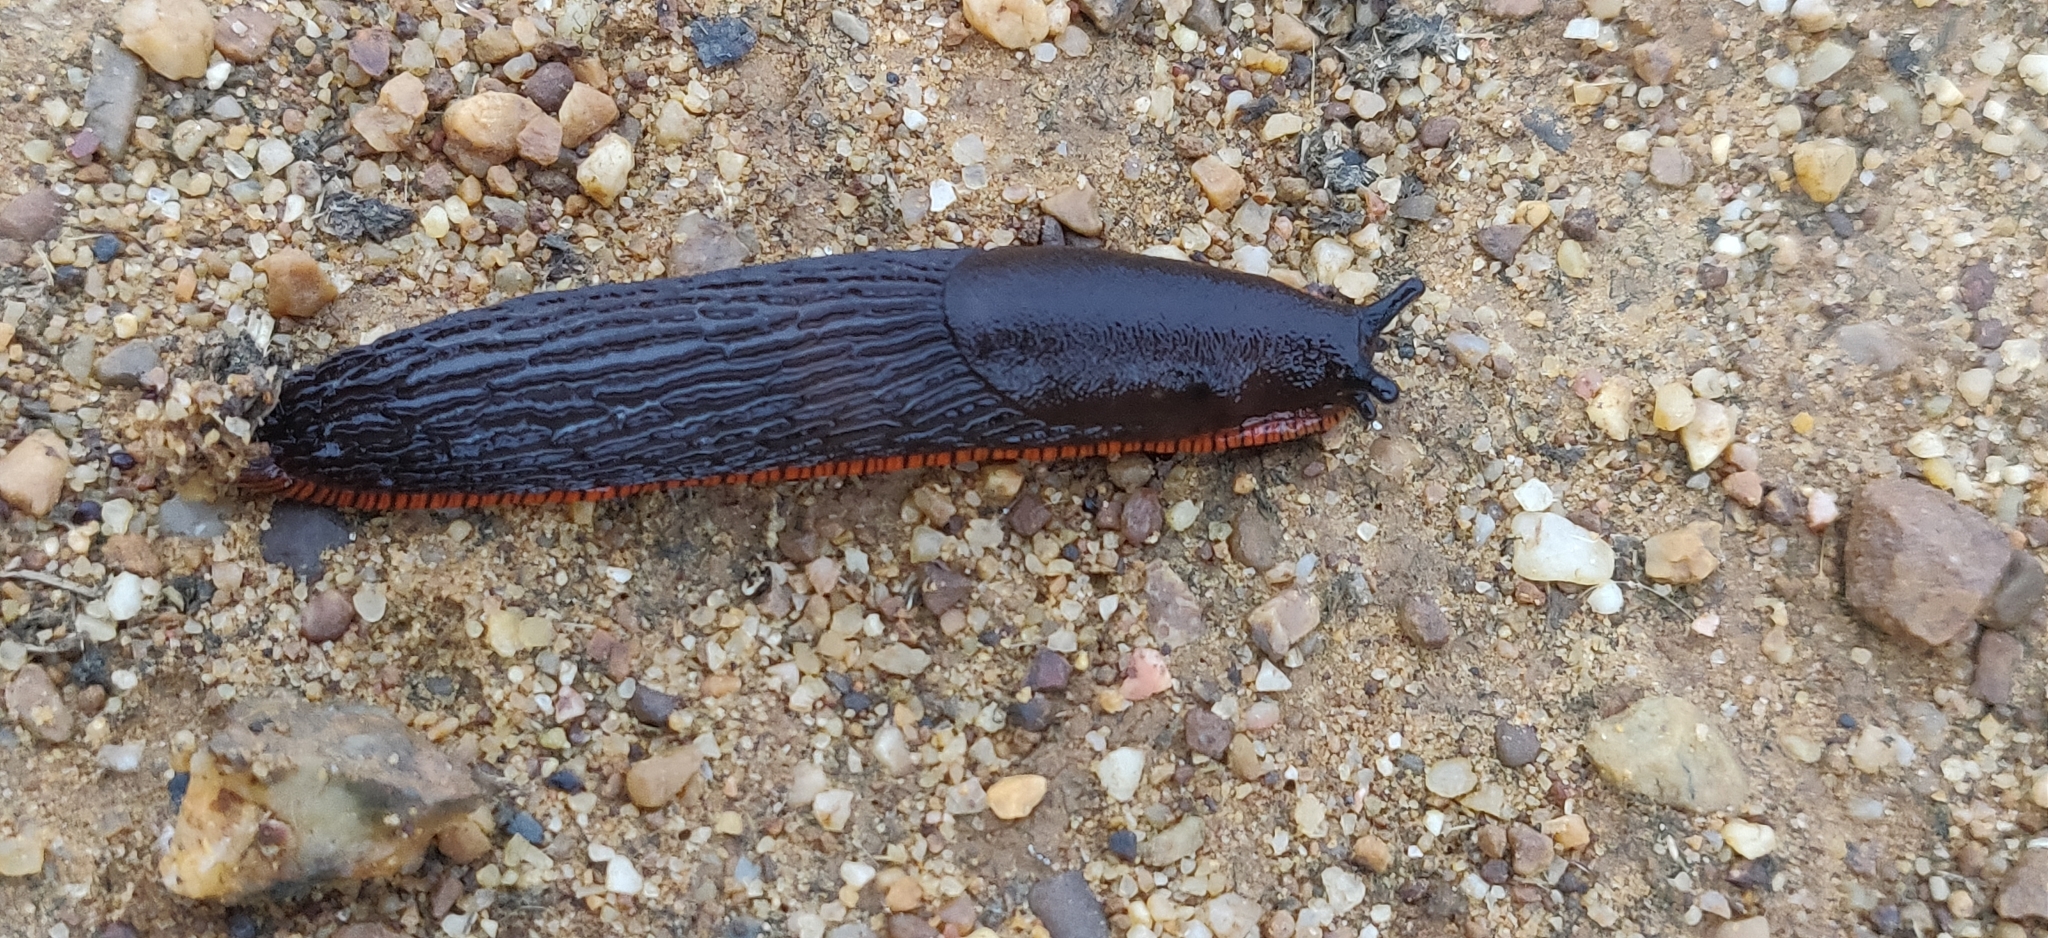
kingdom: Animalia
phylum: Mollusca
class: Gastropoda
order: Stylommatophora
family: Arionidae
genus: Arion
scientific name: Arion ater
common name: Black arion
